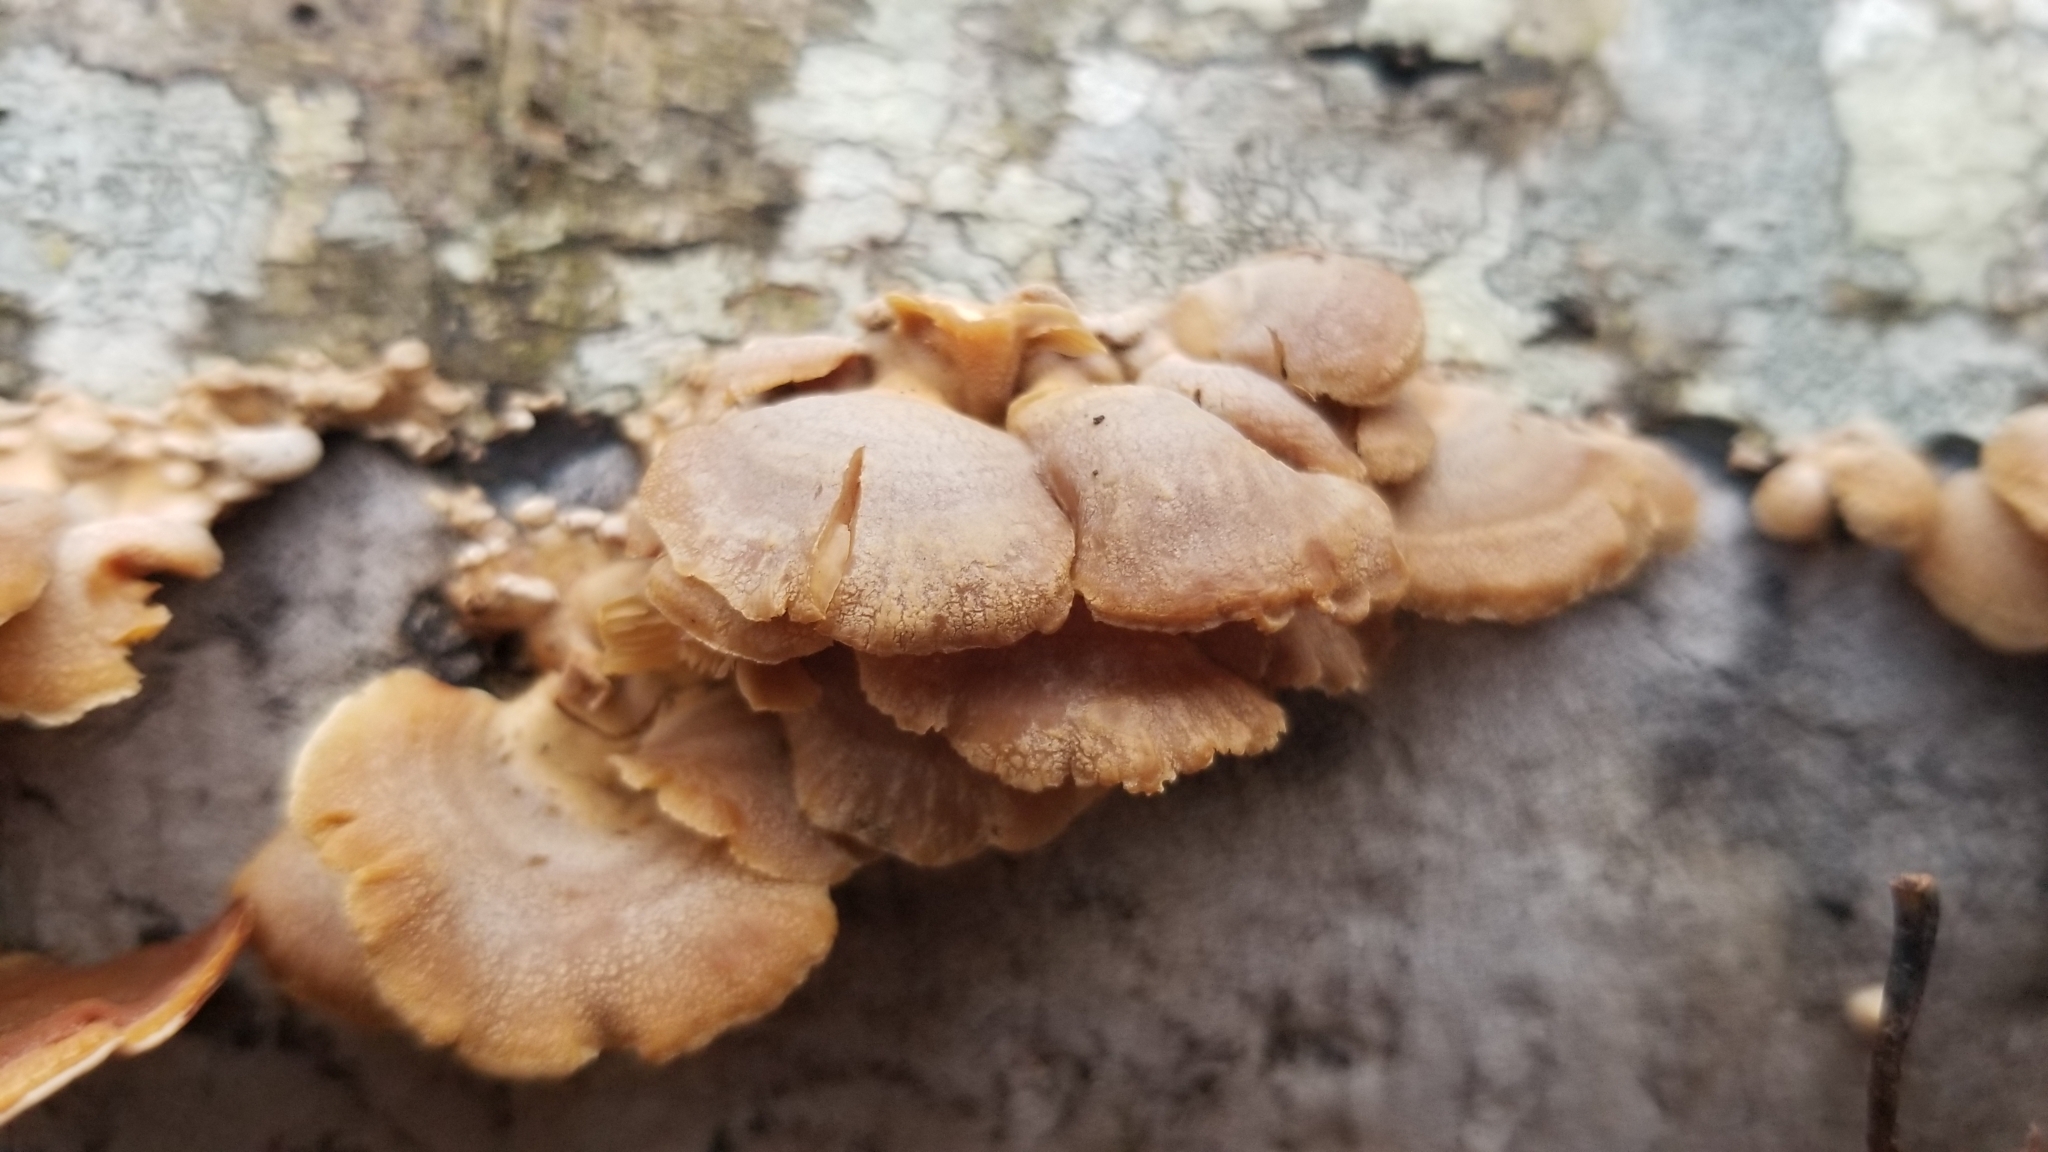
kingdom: Fungi
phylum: Basidiomycota
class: Agaricomycetes
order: Agaricales
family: Mycenaceae
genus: Panellus
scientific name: Panellus stipticus
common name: Bitter oysterling
